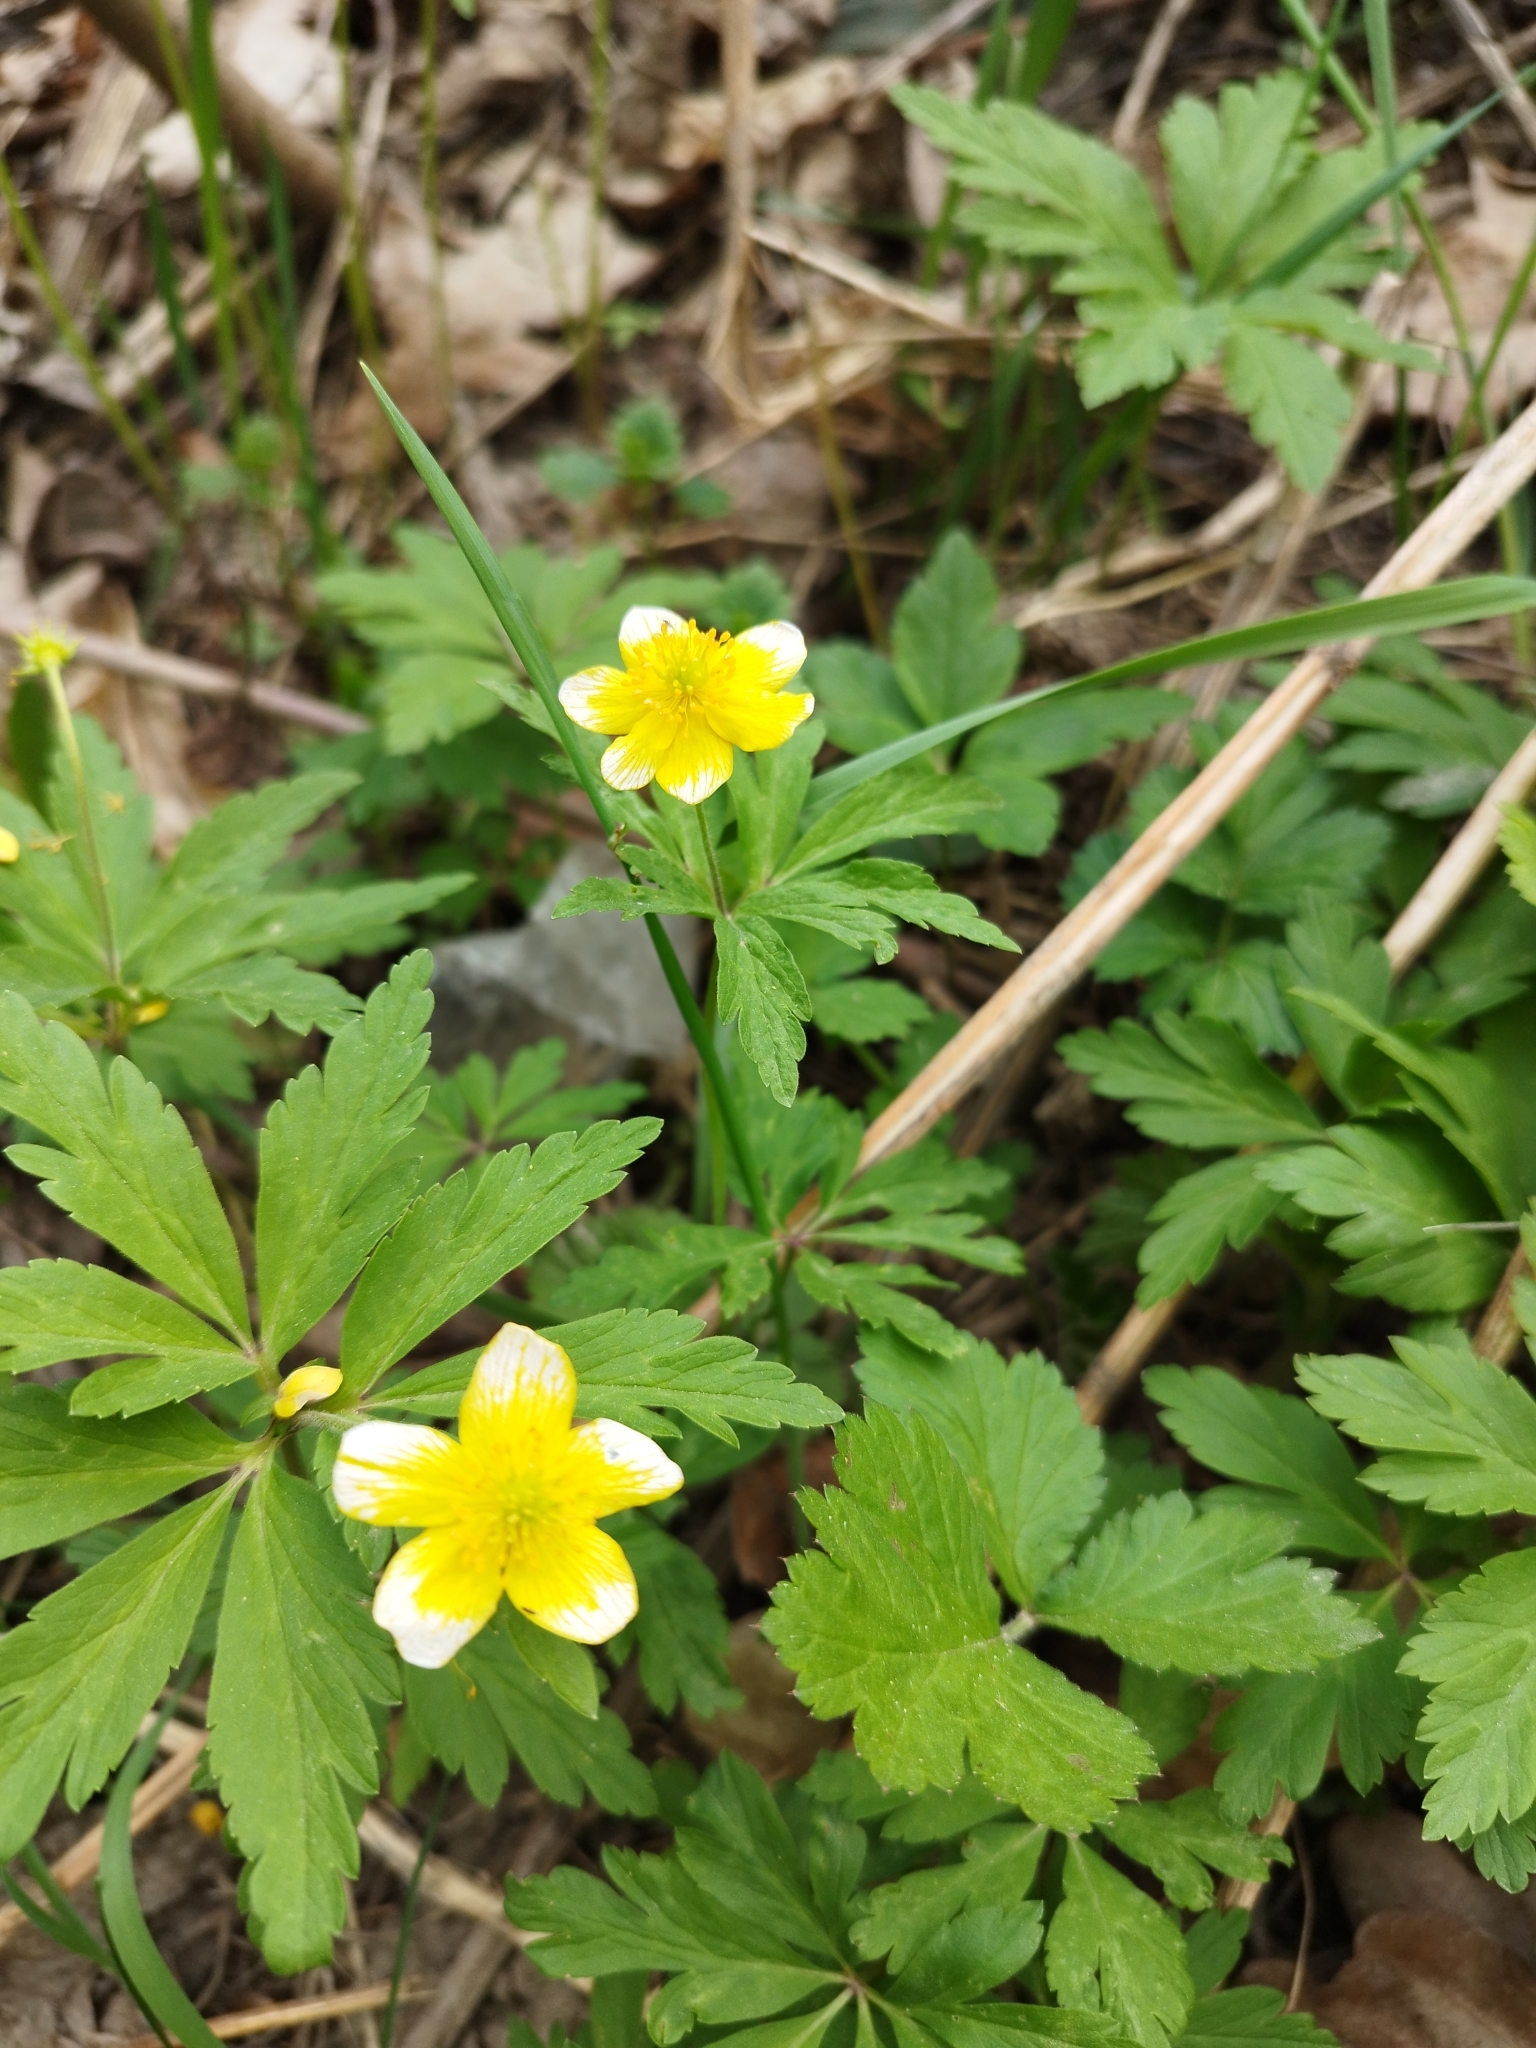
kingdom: Plantae
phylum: Tracheophyta
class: Magnoliopsida
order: Ranunculales
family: Ranunculaceae
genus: Anemone
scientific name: Anemone ranunculoides
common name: Yellow anemone
